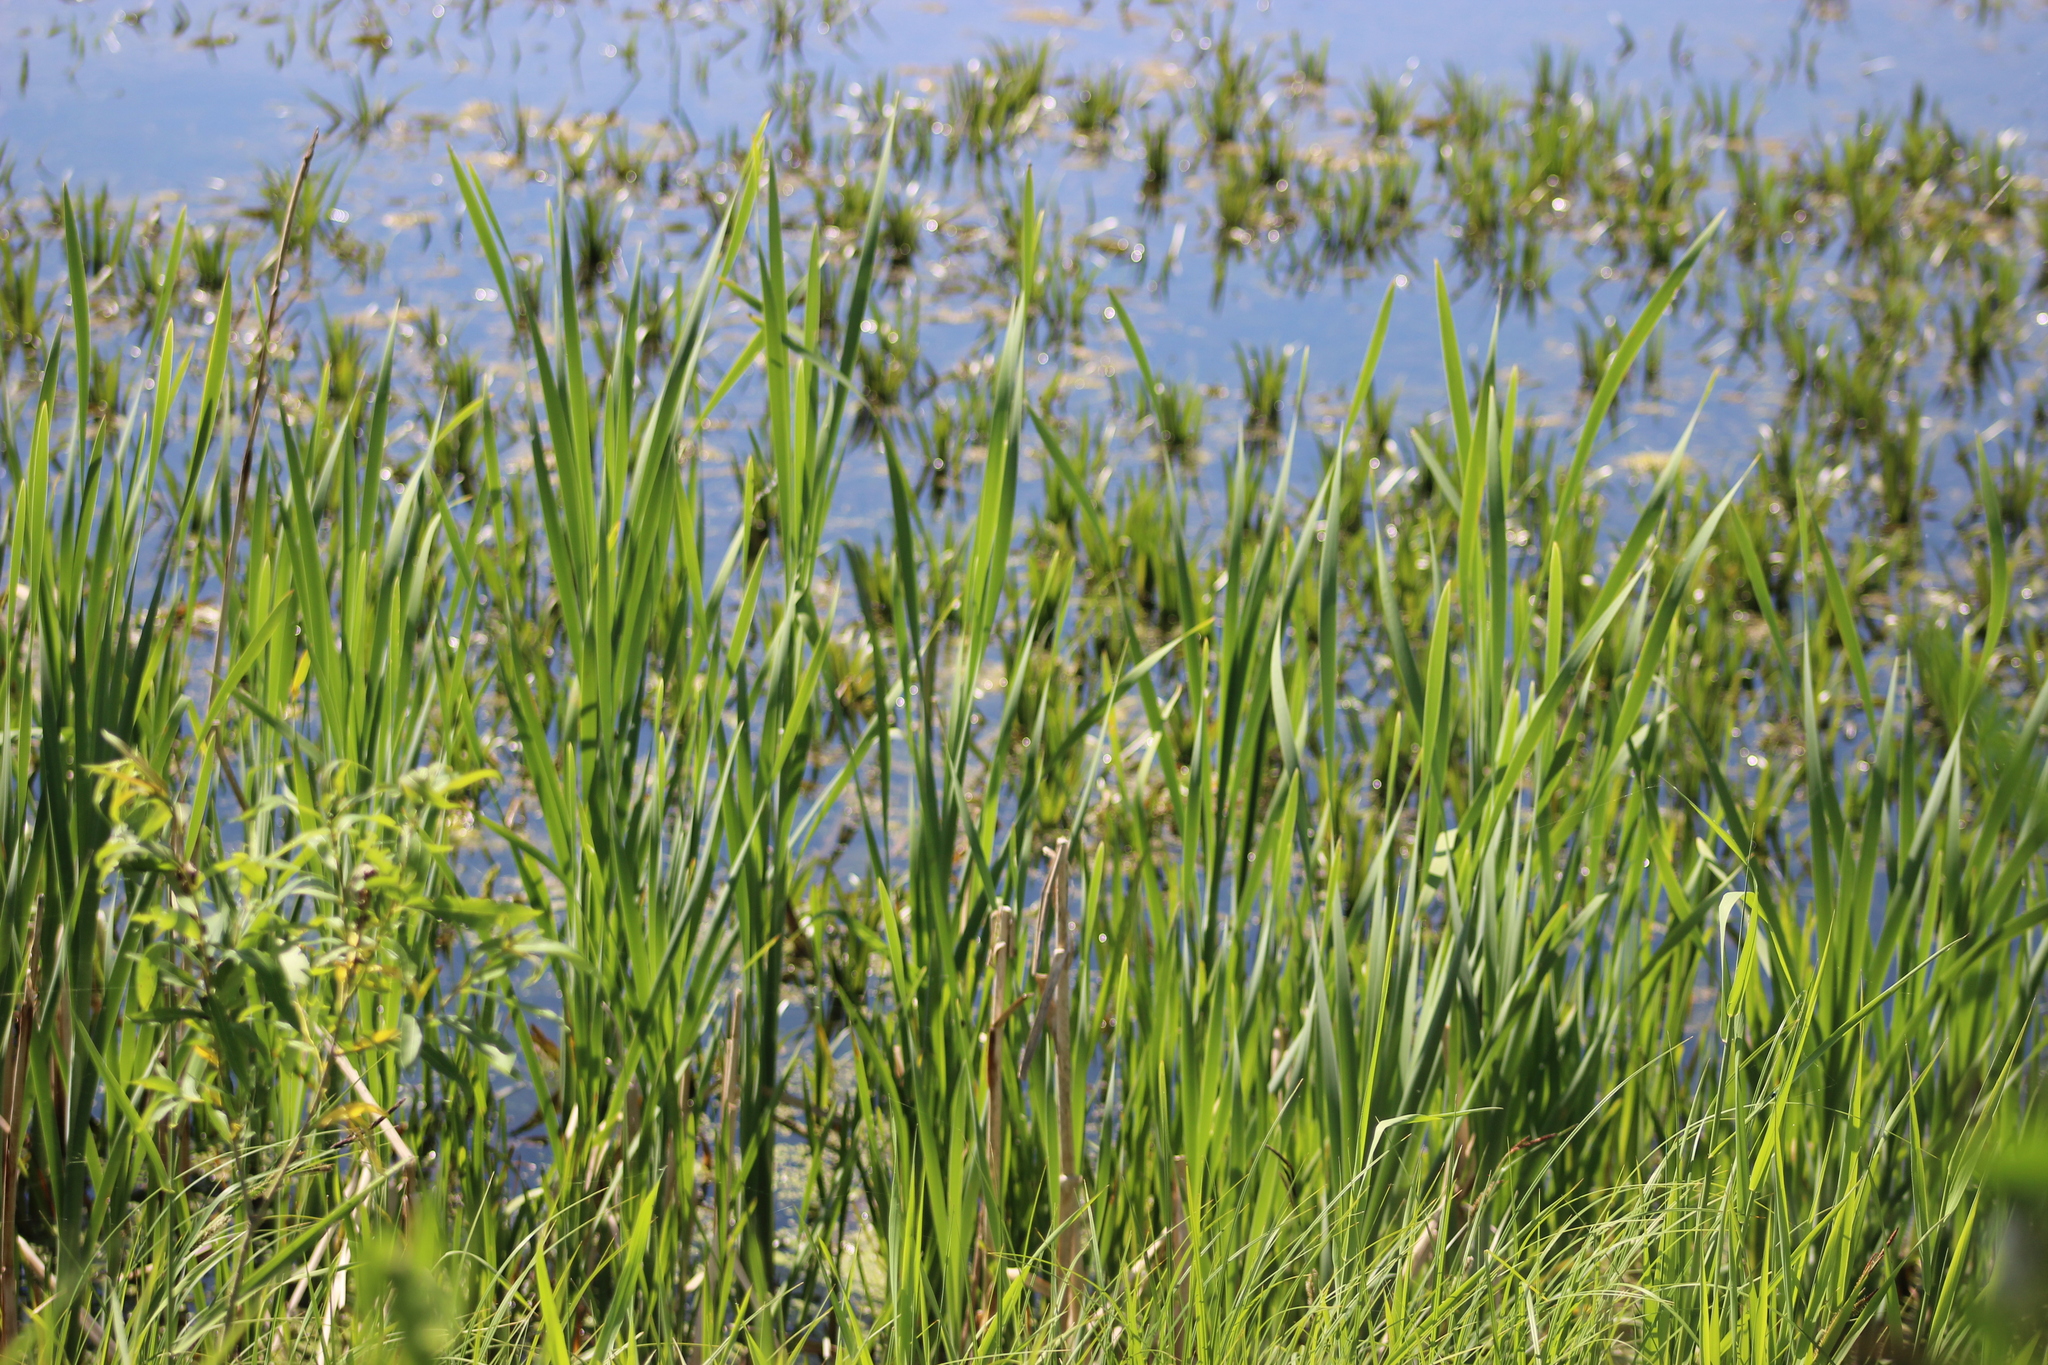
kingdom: Plantae
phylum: Tracheophyta
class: Liliopsida
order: Poales
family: Typhaceae
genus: Typha
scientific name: Typha latifolia
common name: Broadleaf cattail
